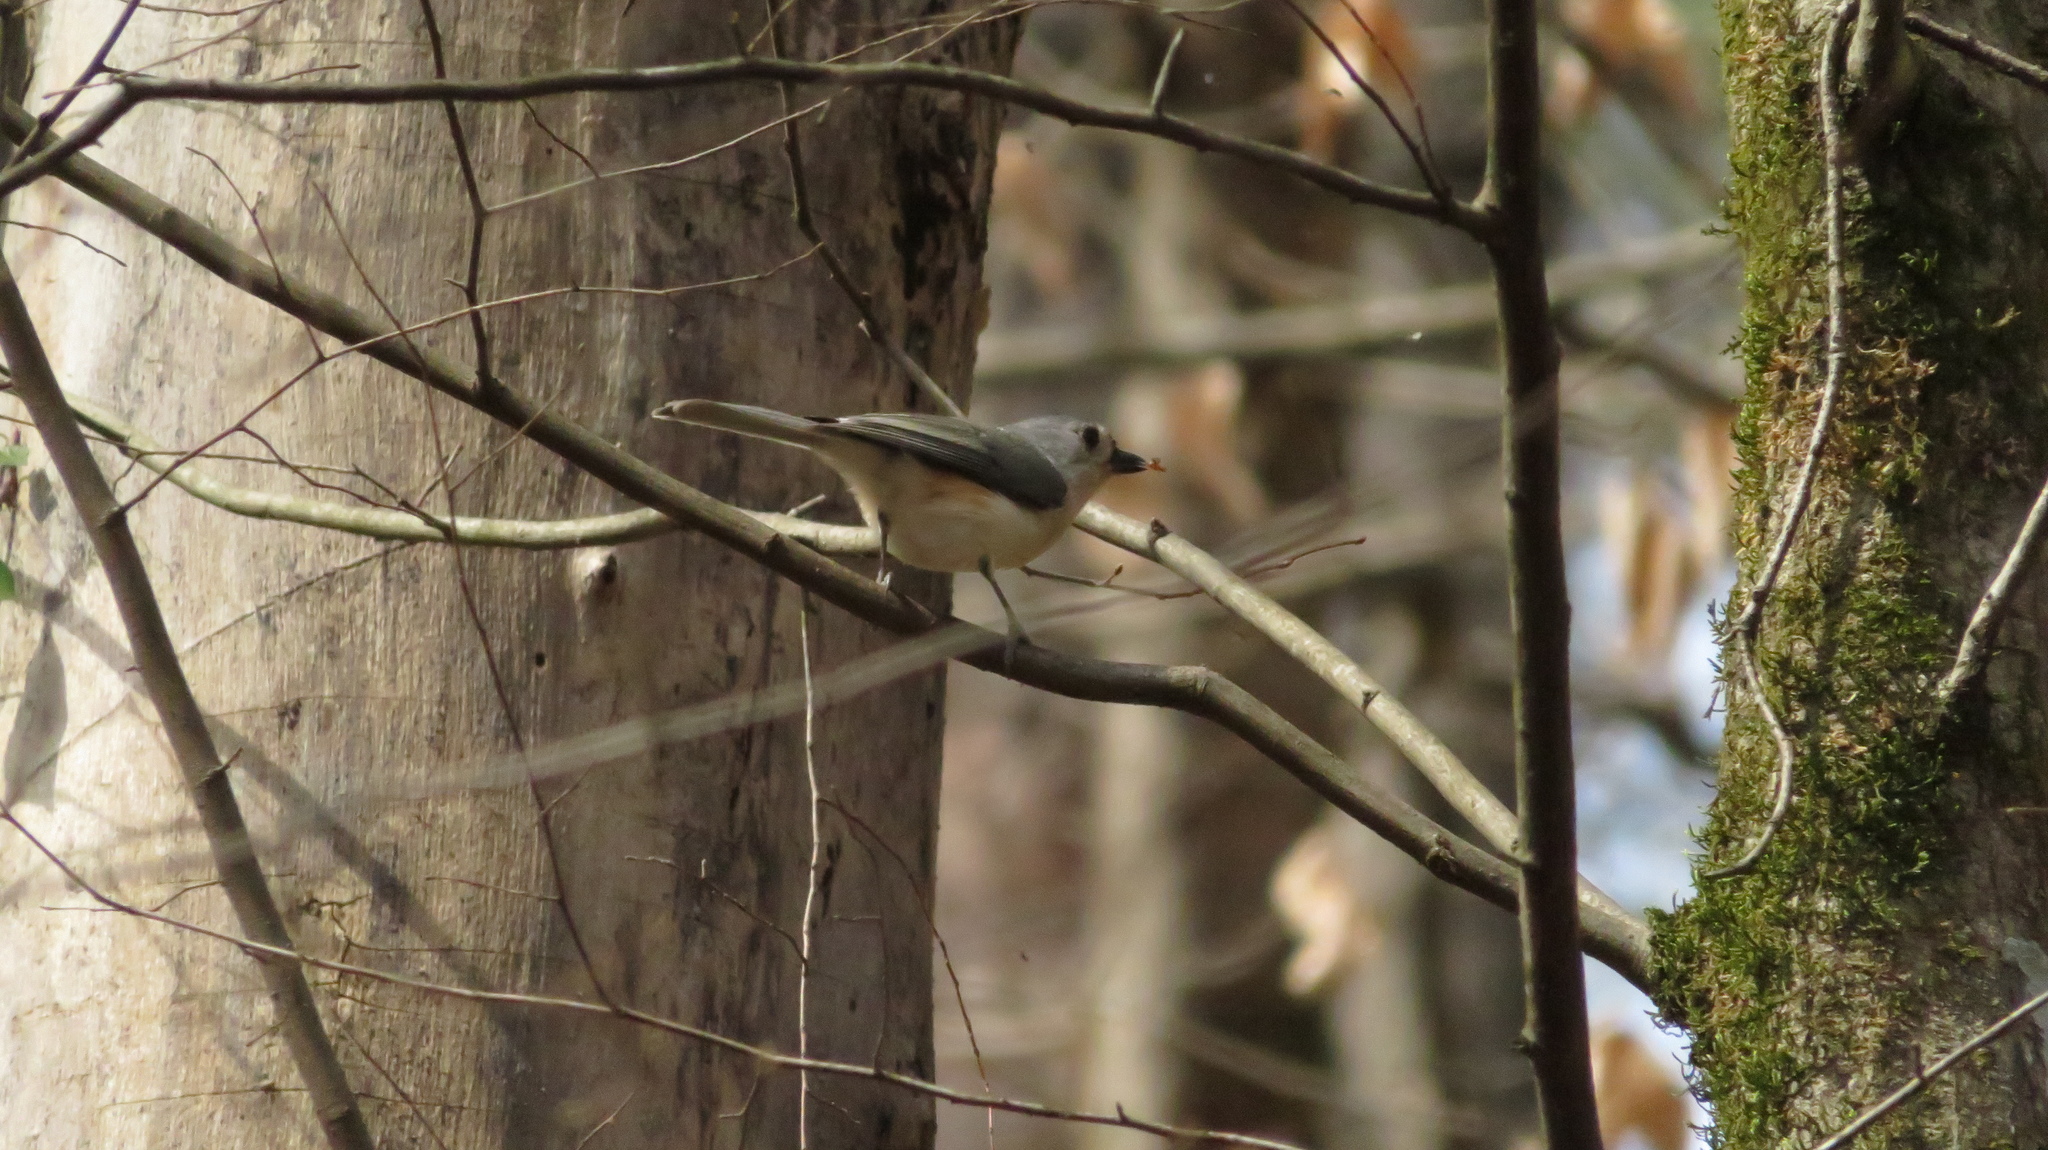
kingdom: Animalia
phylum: Chordata
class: Aves
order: Passeriformes
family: Paridae
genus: Baeolophus
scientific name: Baeolophus bicolor
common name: Tufted titmouse
